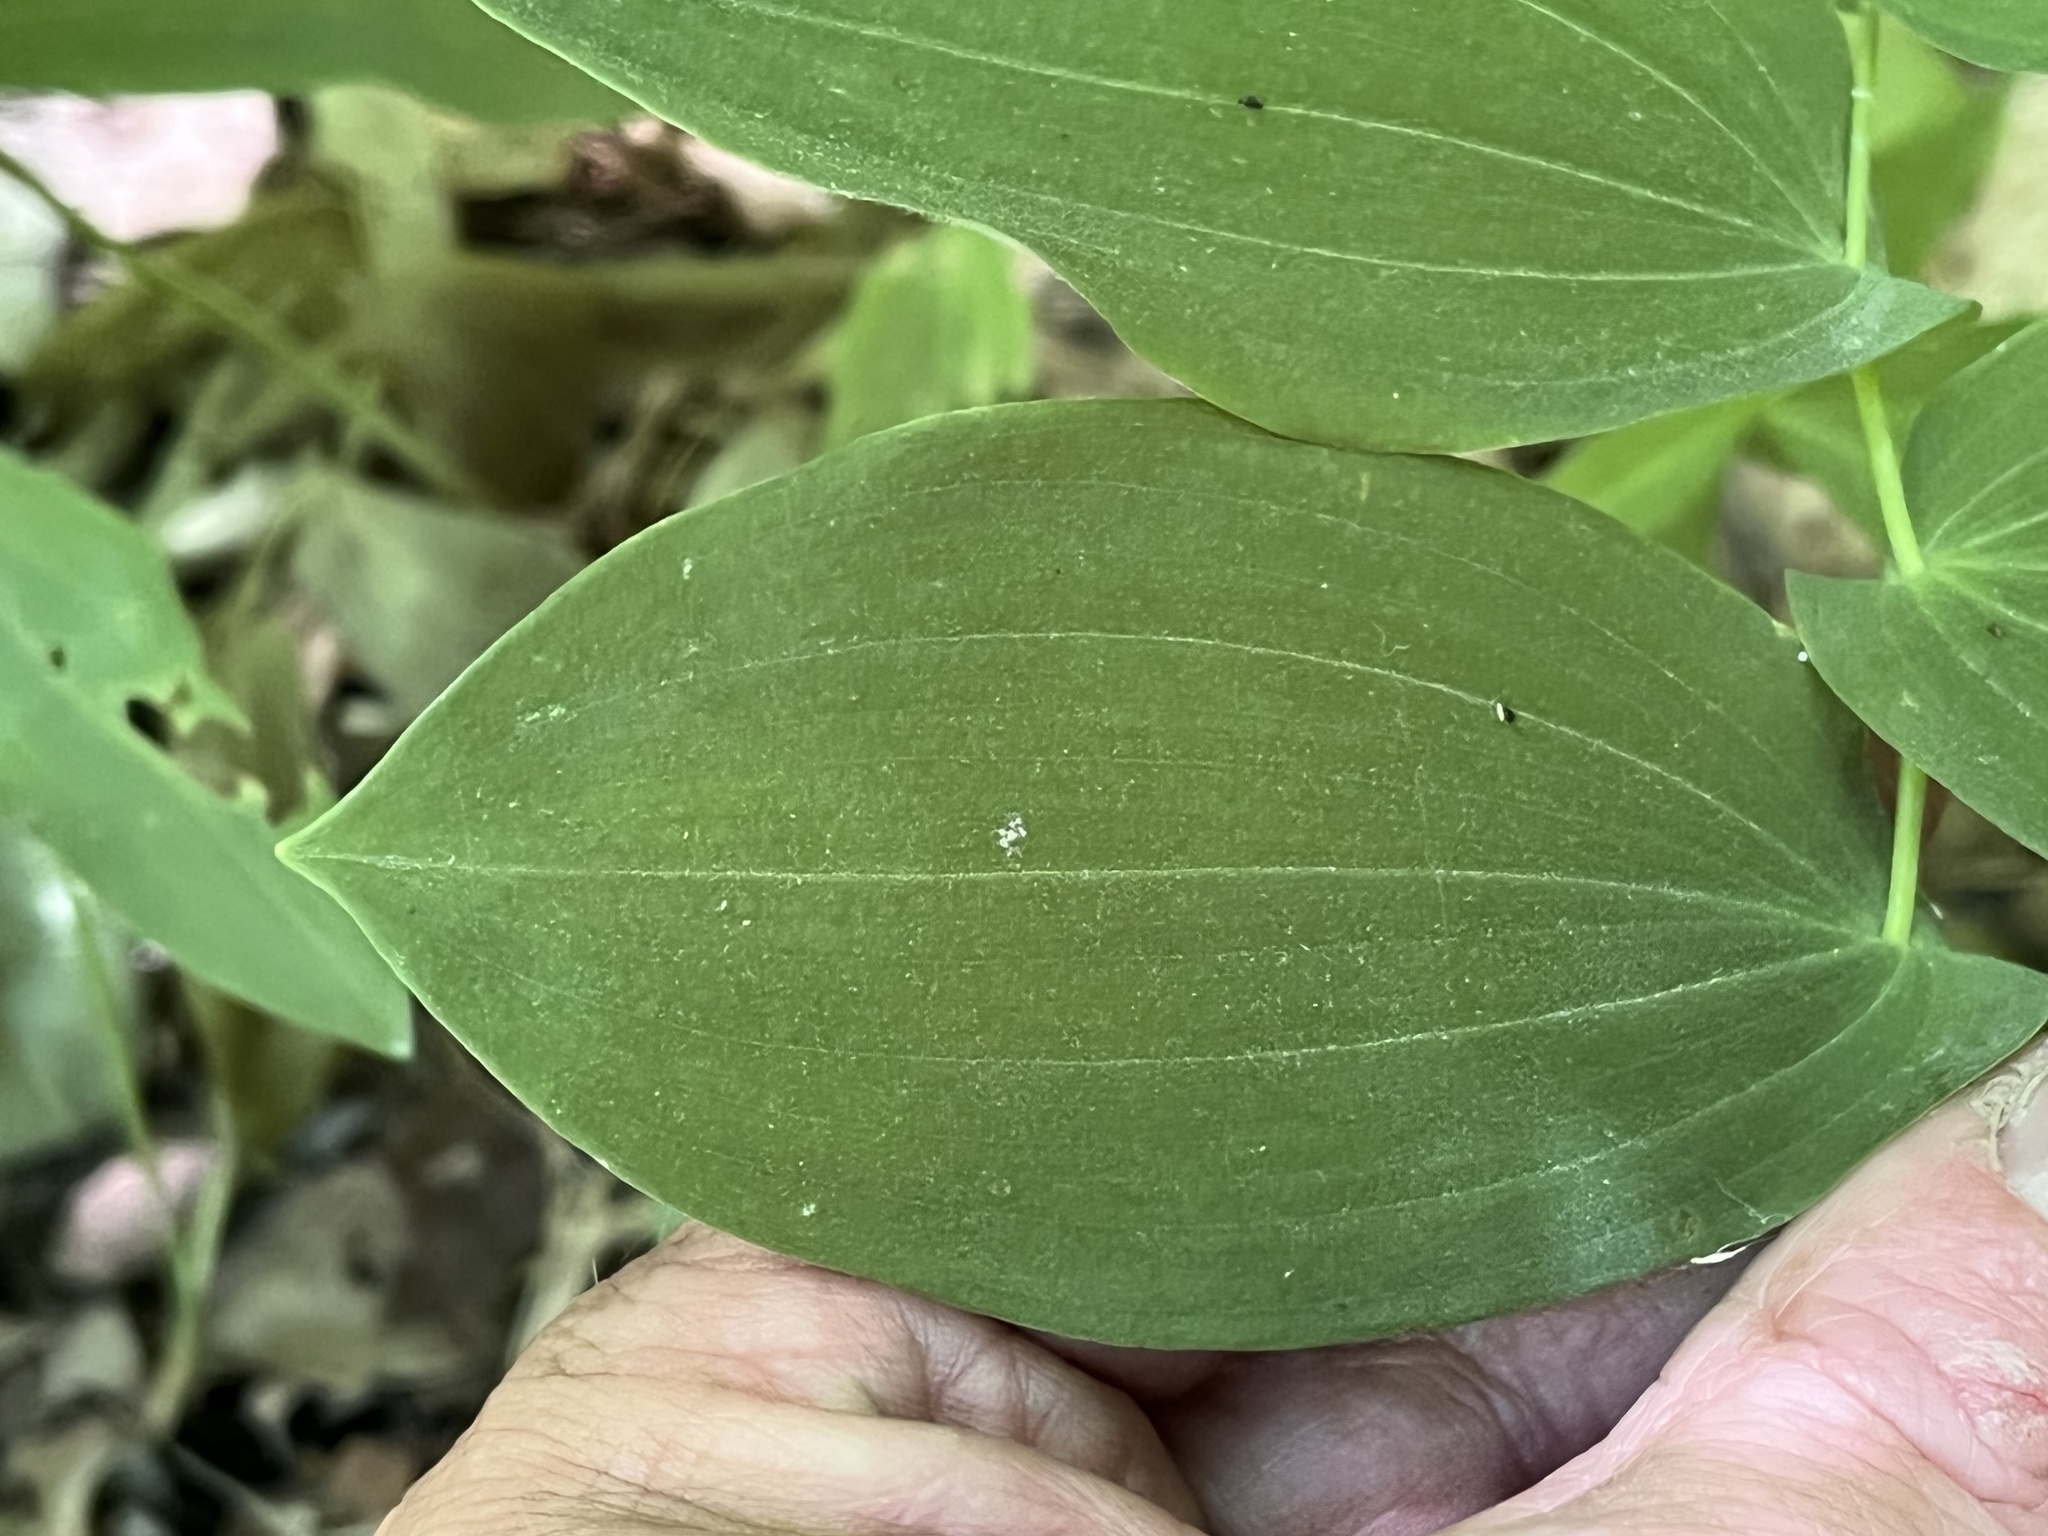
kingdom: Plantae
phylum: Tracheophyta
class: Liliopsida
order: Liliales
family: Colchicaceae
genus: Uvularia
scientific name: Uvularia grandiflora
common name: Bellwort
